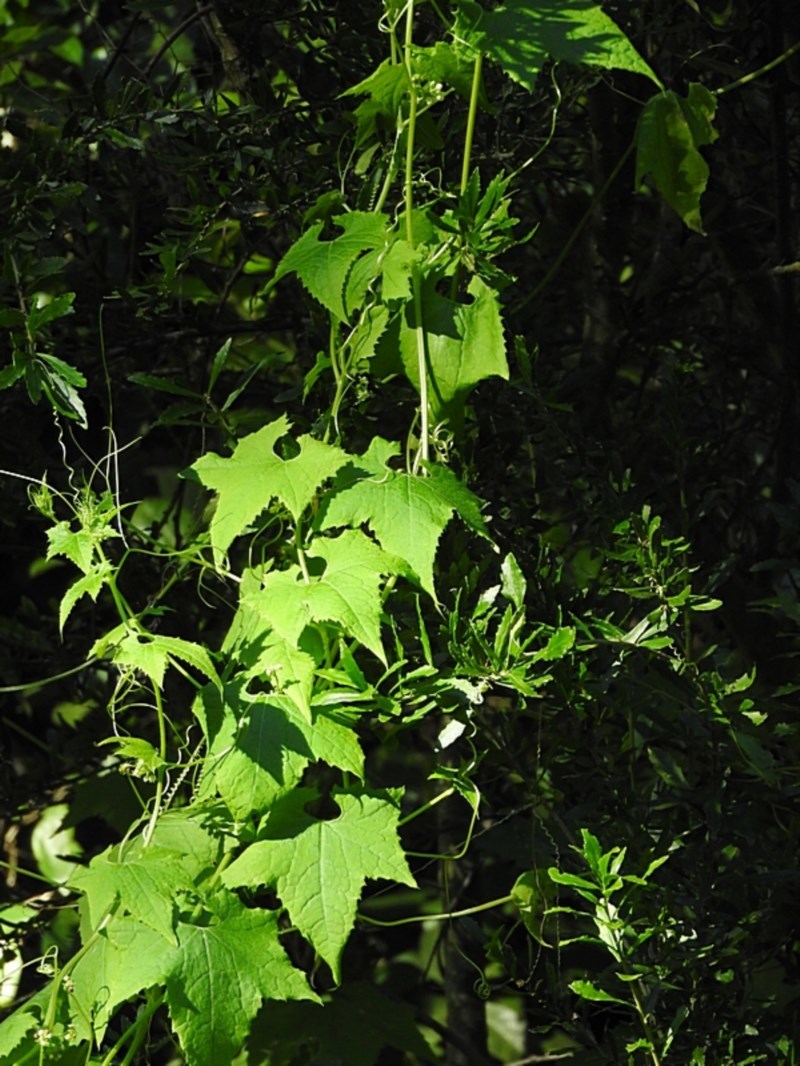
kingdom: Plantae
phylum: Tracheophyta
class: Magnoliopsida
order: Cucurbitales
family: Cucurbitaceae
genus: Sicyos
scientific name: Sicyos australis
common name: Angle-cucumber
